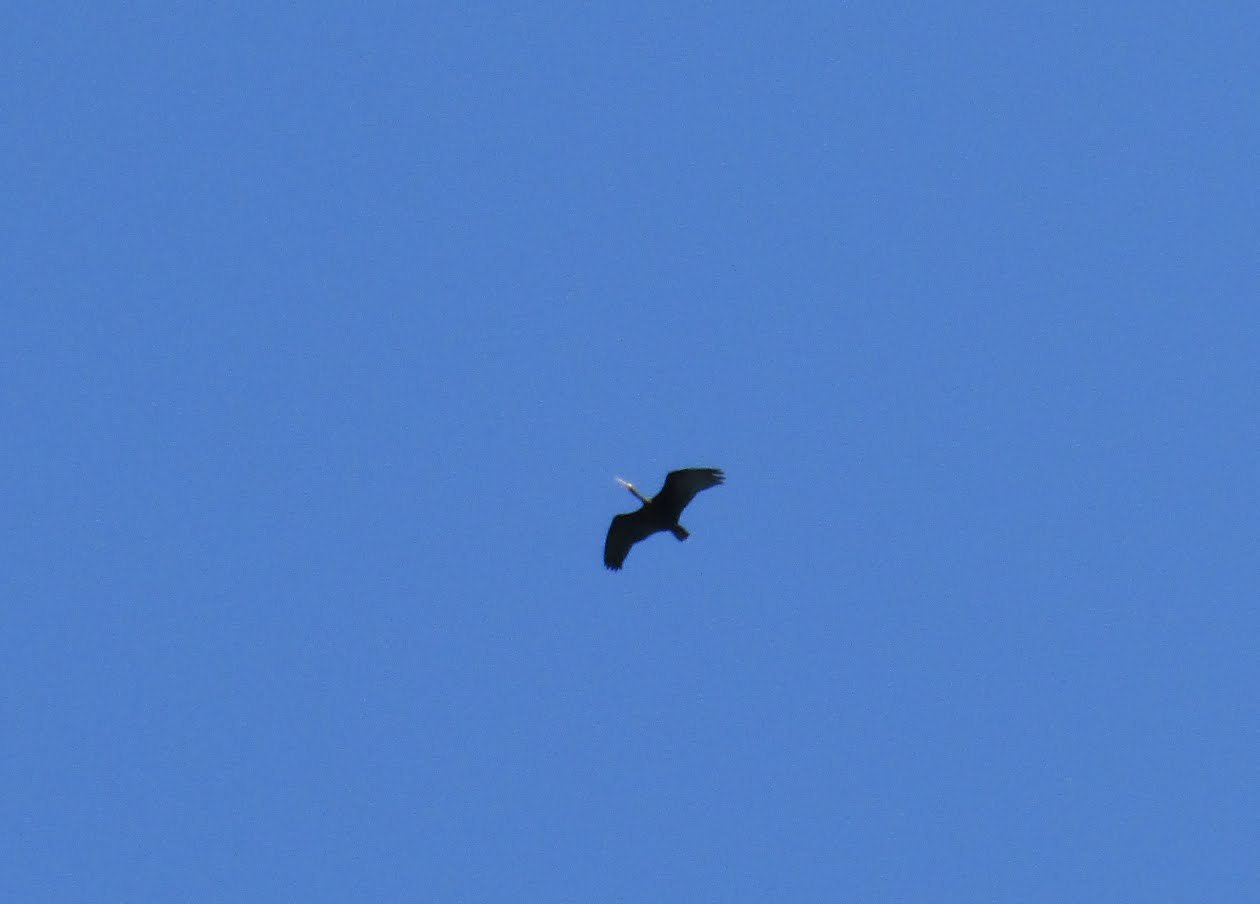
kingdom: Animalia
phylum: Chordata
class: Aves
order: Pelecaniformes
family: Threskiornithidae
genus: Phimosus
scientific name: Phimosus infuscatus
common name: Bare-faced ibis
